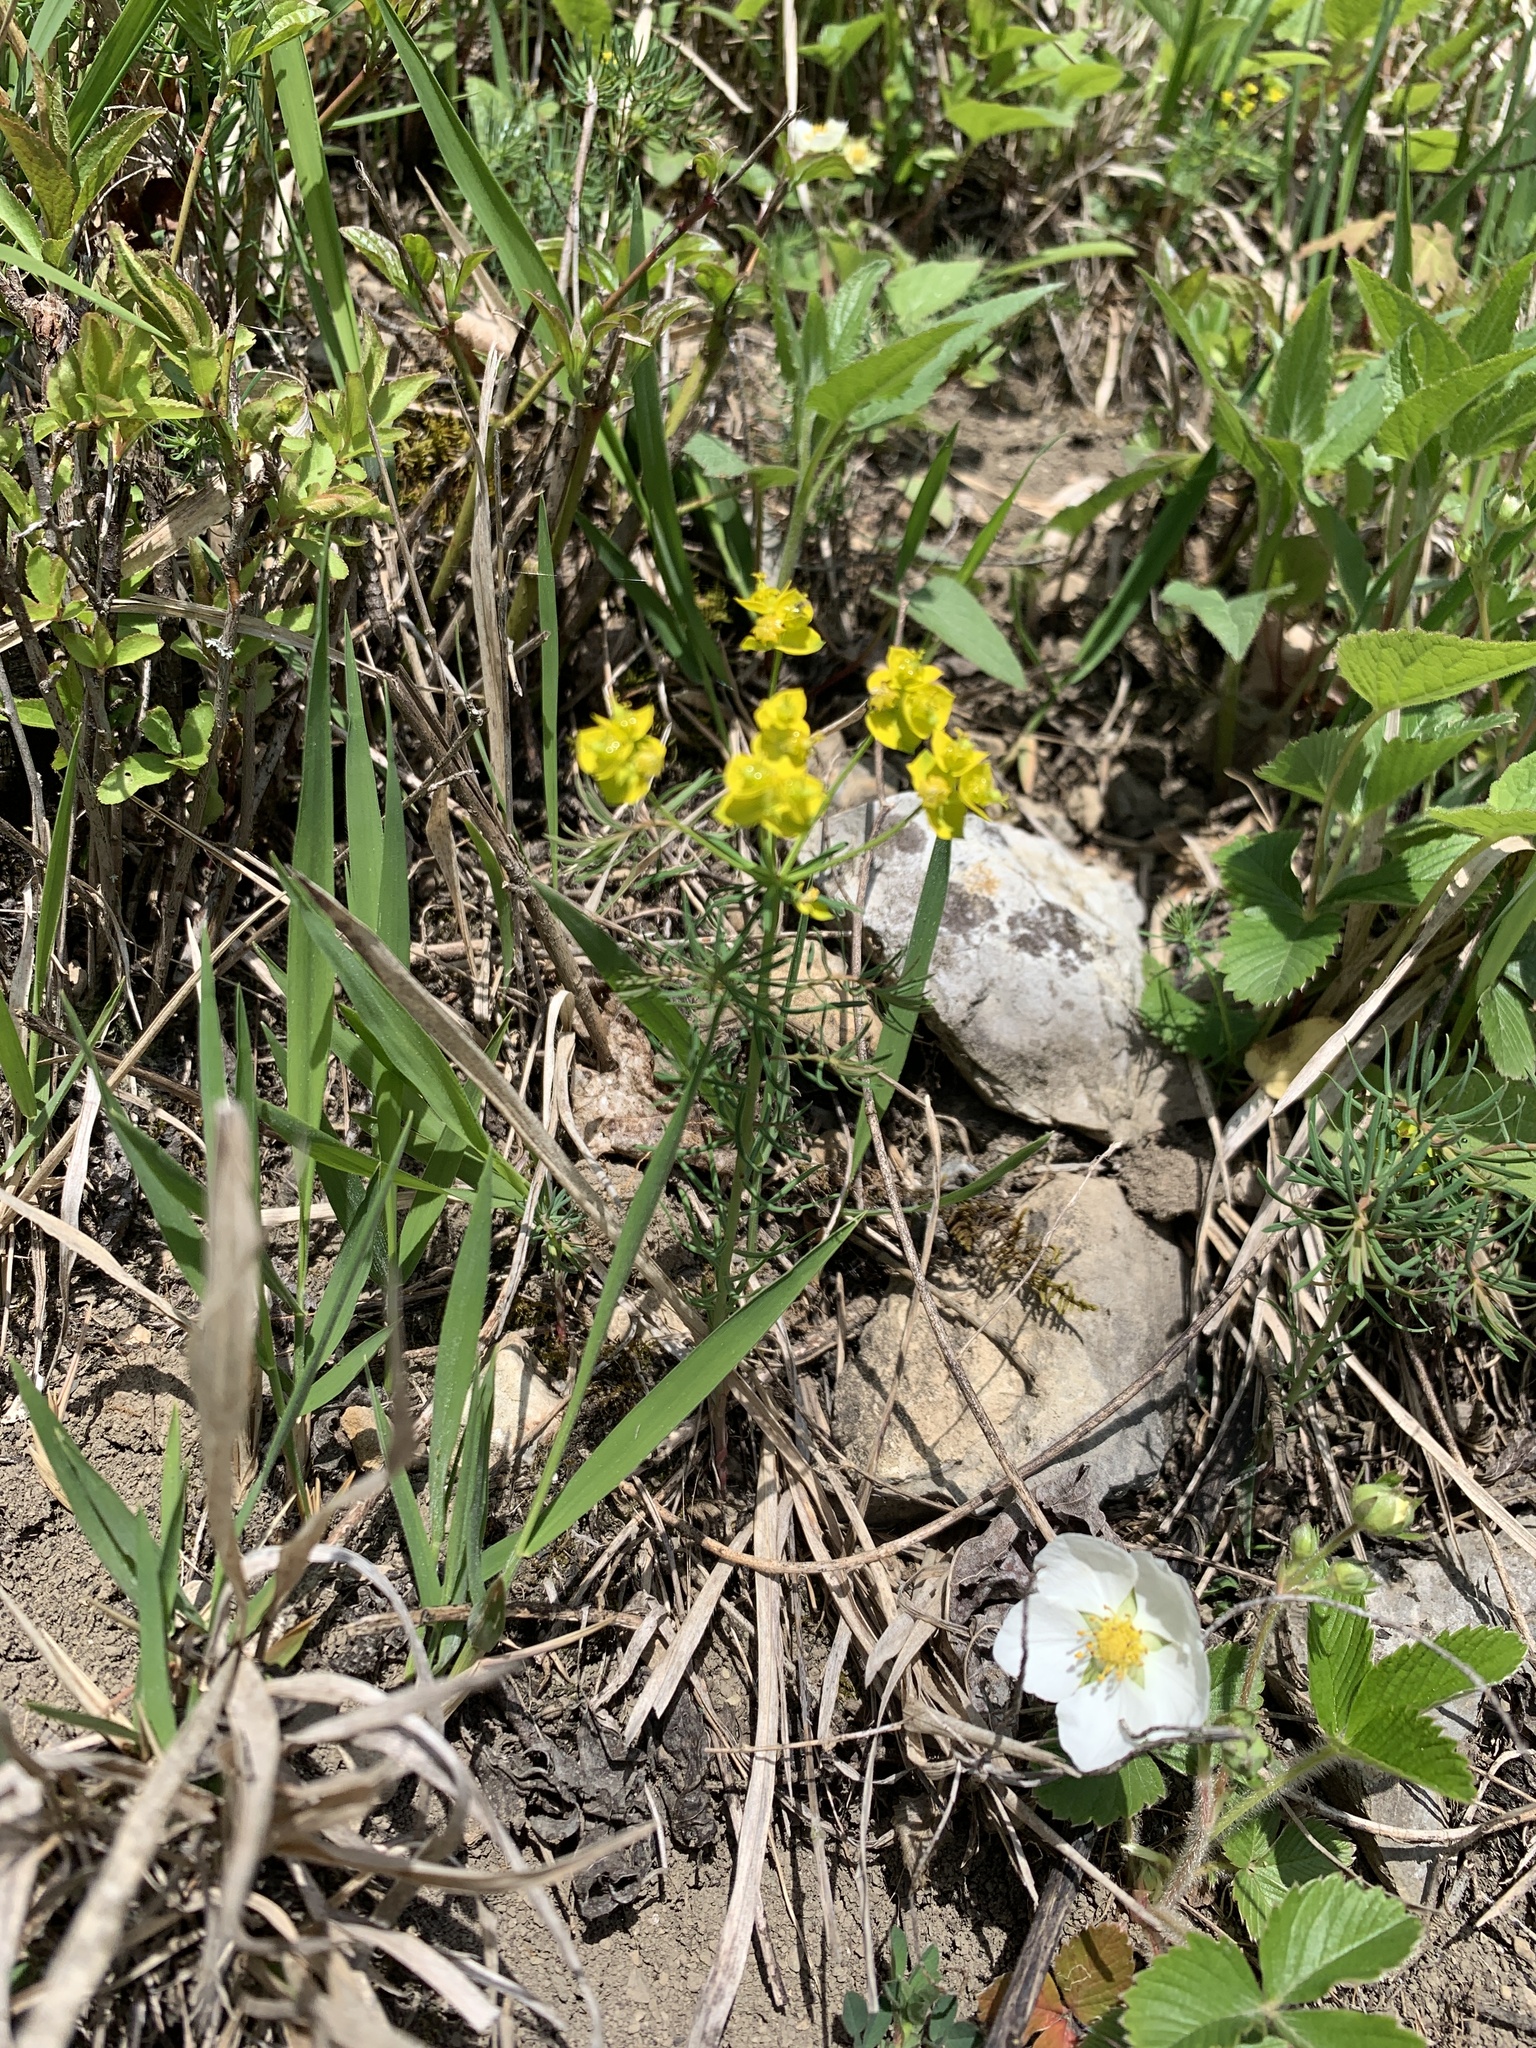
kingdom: Plantae
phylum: Tracheophyta
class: Magnoliopsida
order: Malpighiales
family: Euphorbiaceae
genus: Euphorbia
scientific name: Euphorbia cyparissias
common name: Cypress spurge
